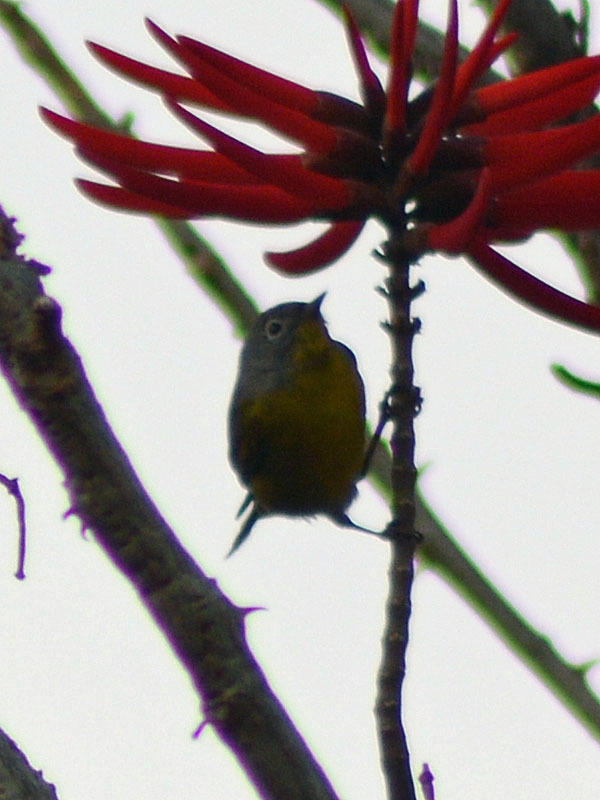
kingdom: Animalia
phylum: Chordata
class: Aves
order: Passeriformes
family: Parulidae
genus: Leiothlypis
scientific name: Leiothlypis ruficapilla
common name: Nashville warbler
